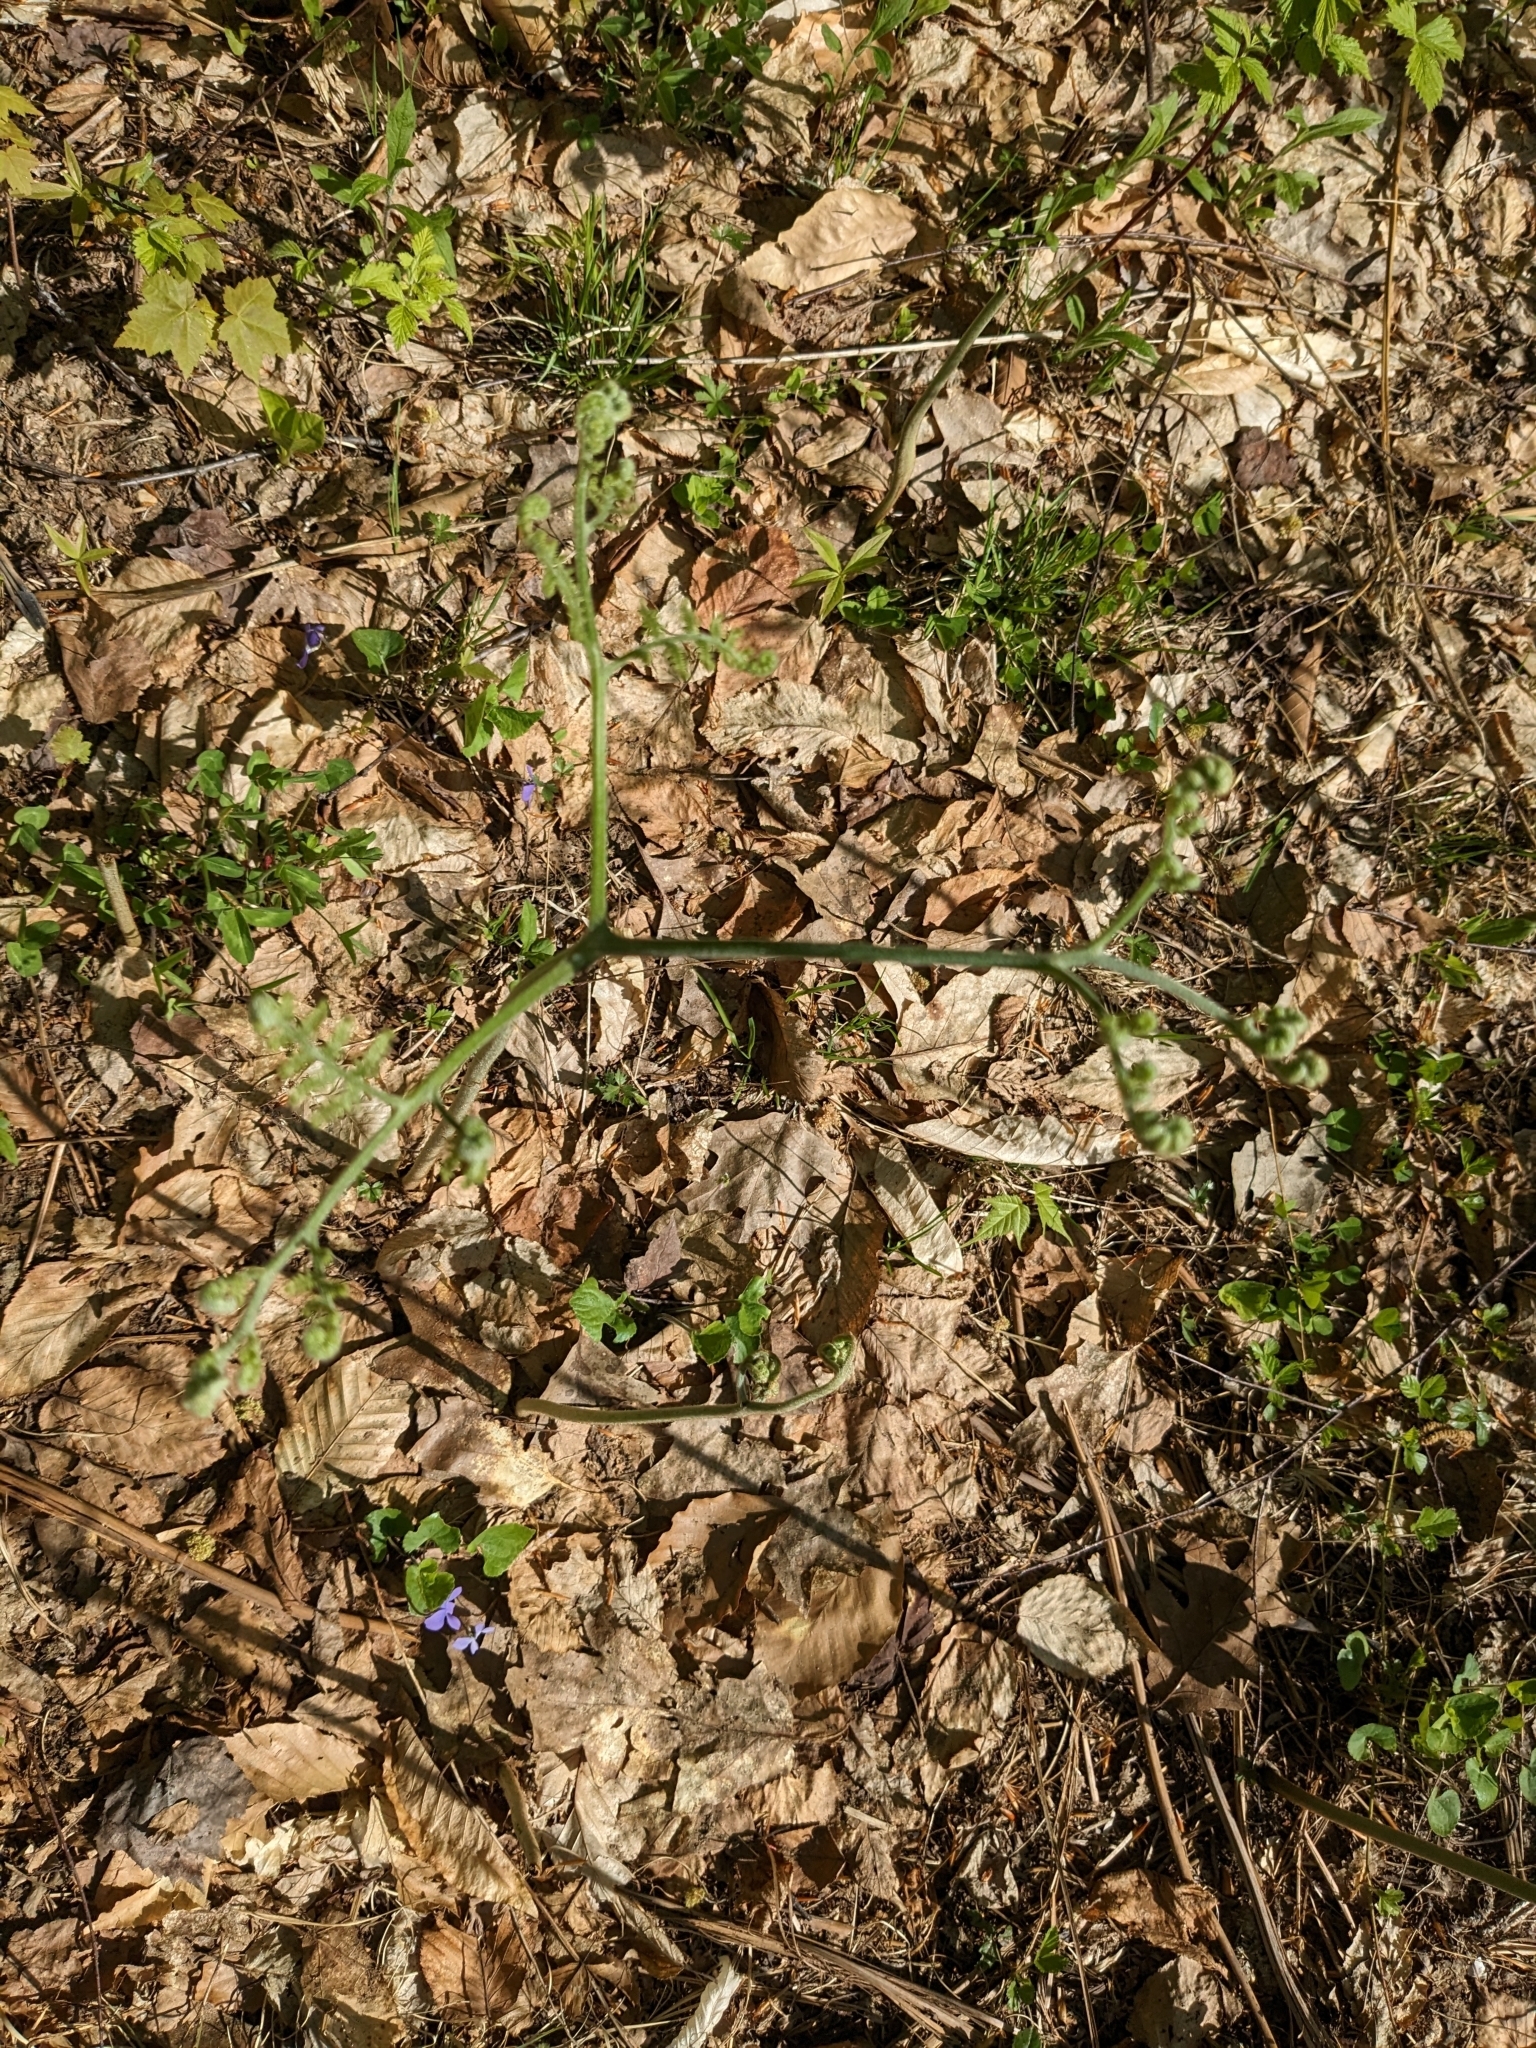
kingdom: Plantae
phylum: Tracheophyta
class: Polypodiopsida
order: Polypodiales
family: Dennstaedtiaceae
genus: Pteridium
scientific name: Pteridium aquilinum
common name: Bracken
